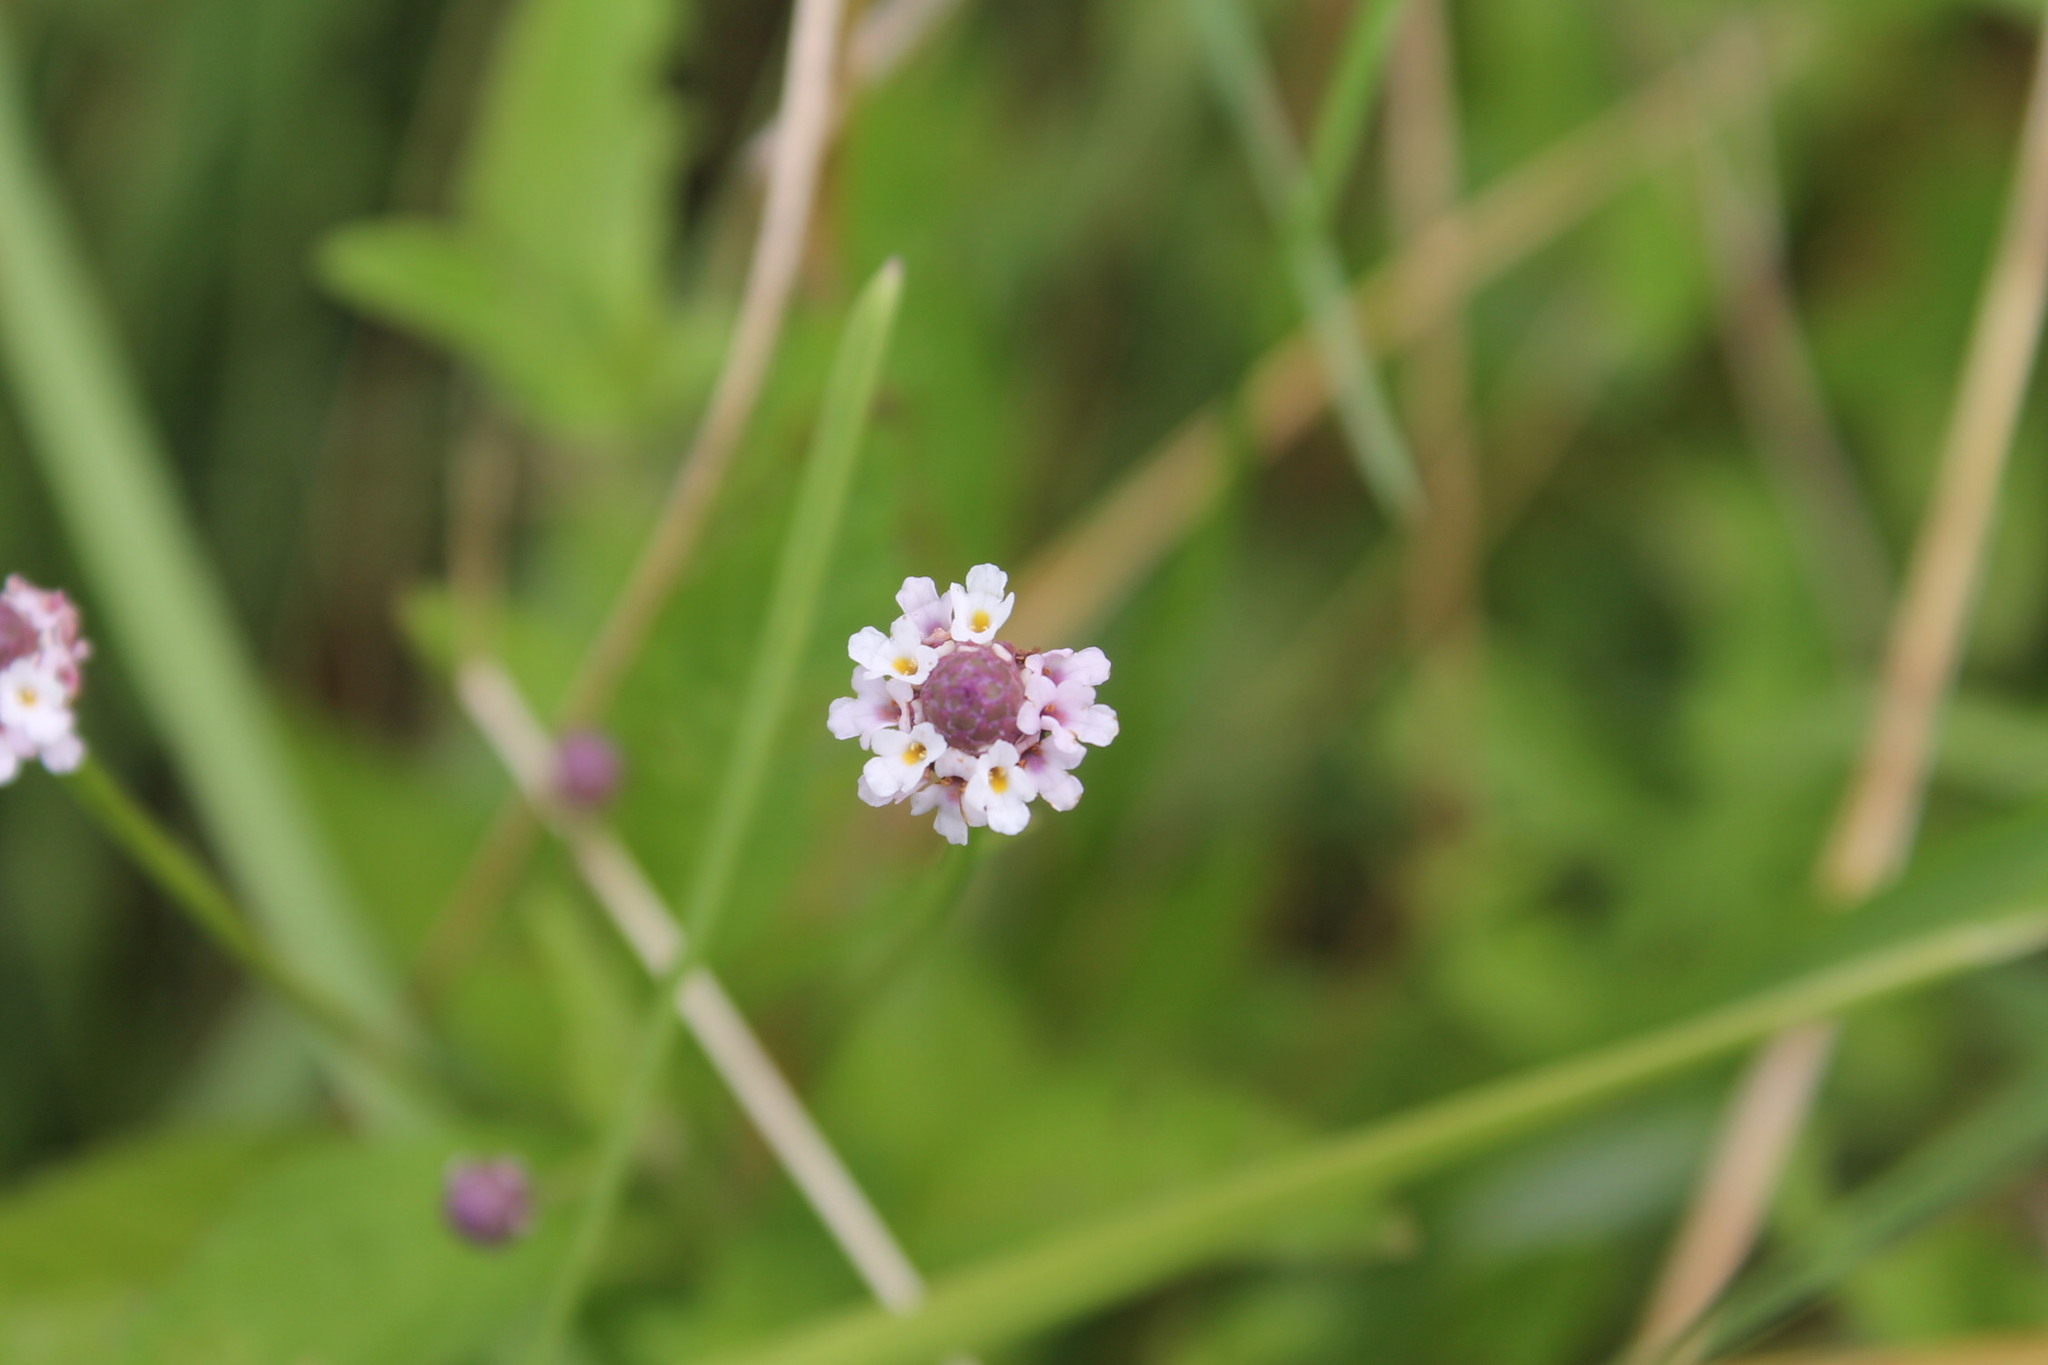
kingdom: Plantae
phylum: Tracheophyta
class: Magnoliopsida
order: Lamiales
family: Verbenaceae
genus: Phyla
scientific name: Phyla lanceolata
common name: Northern fogfruit
